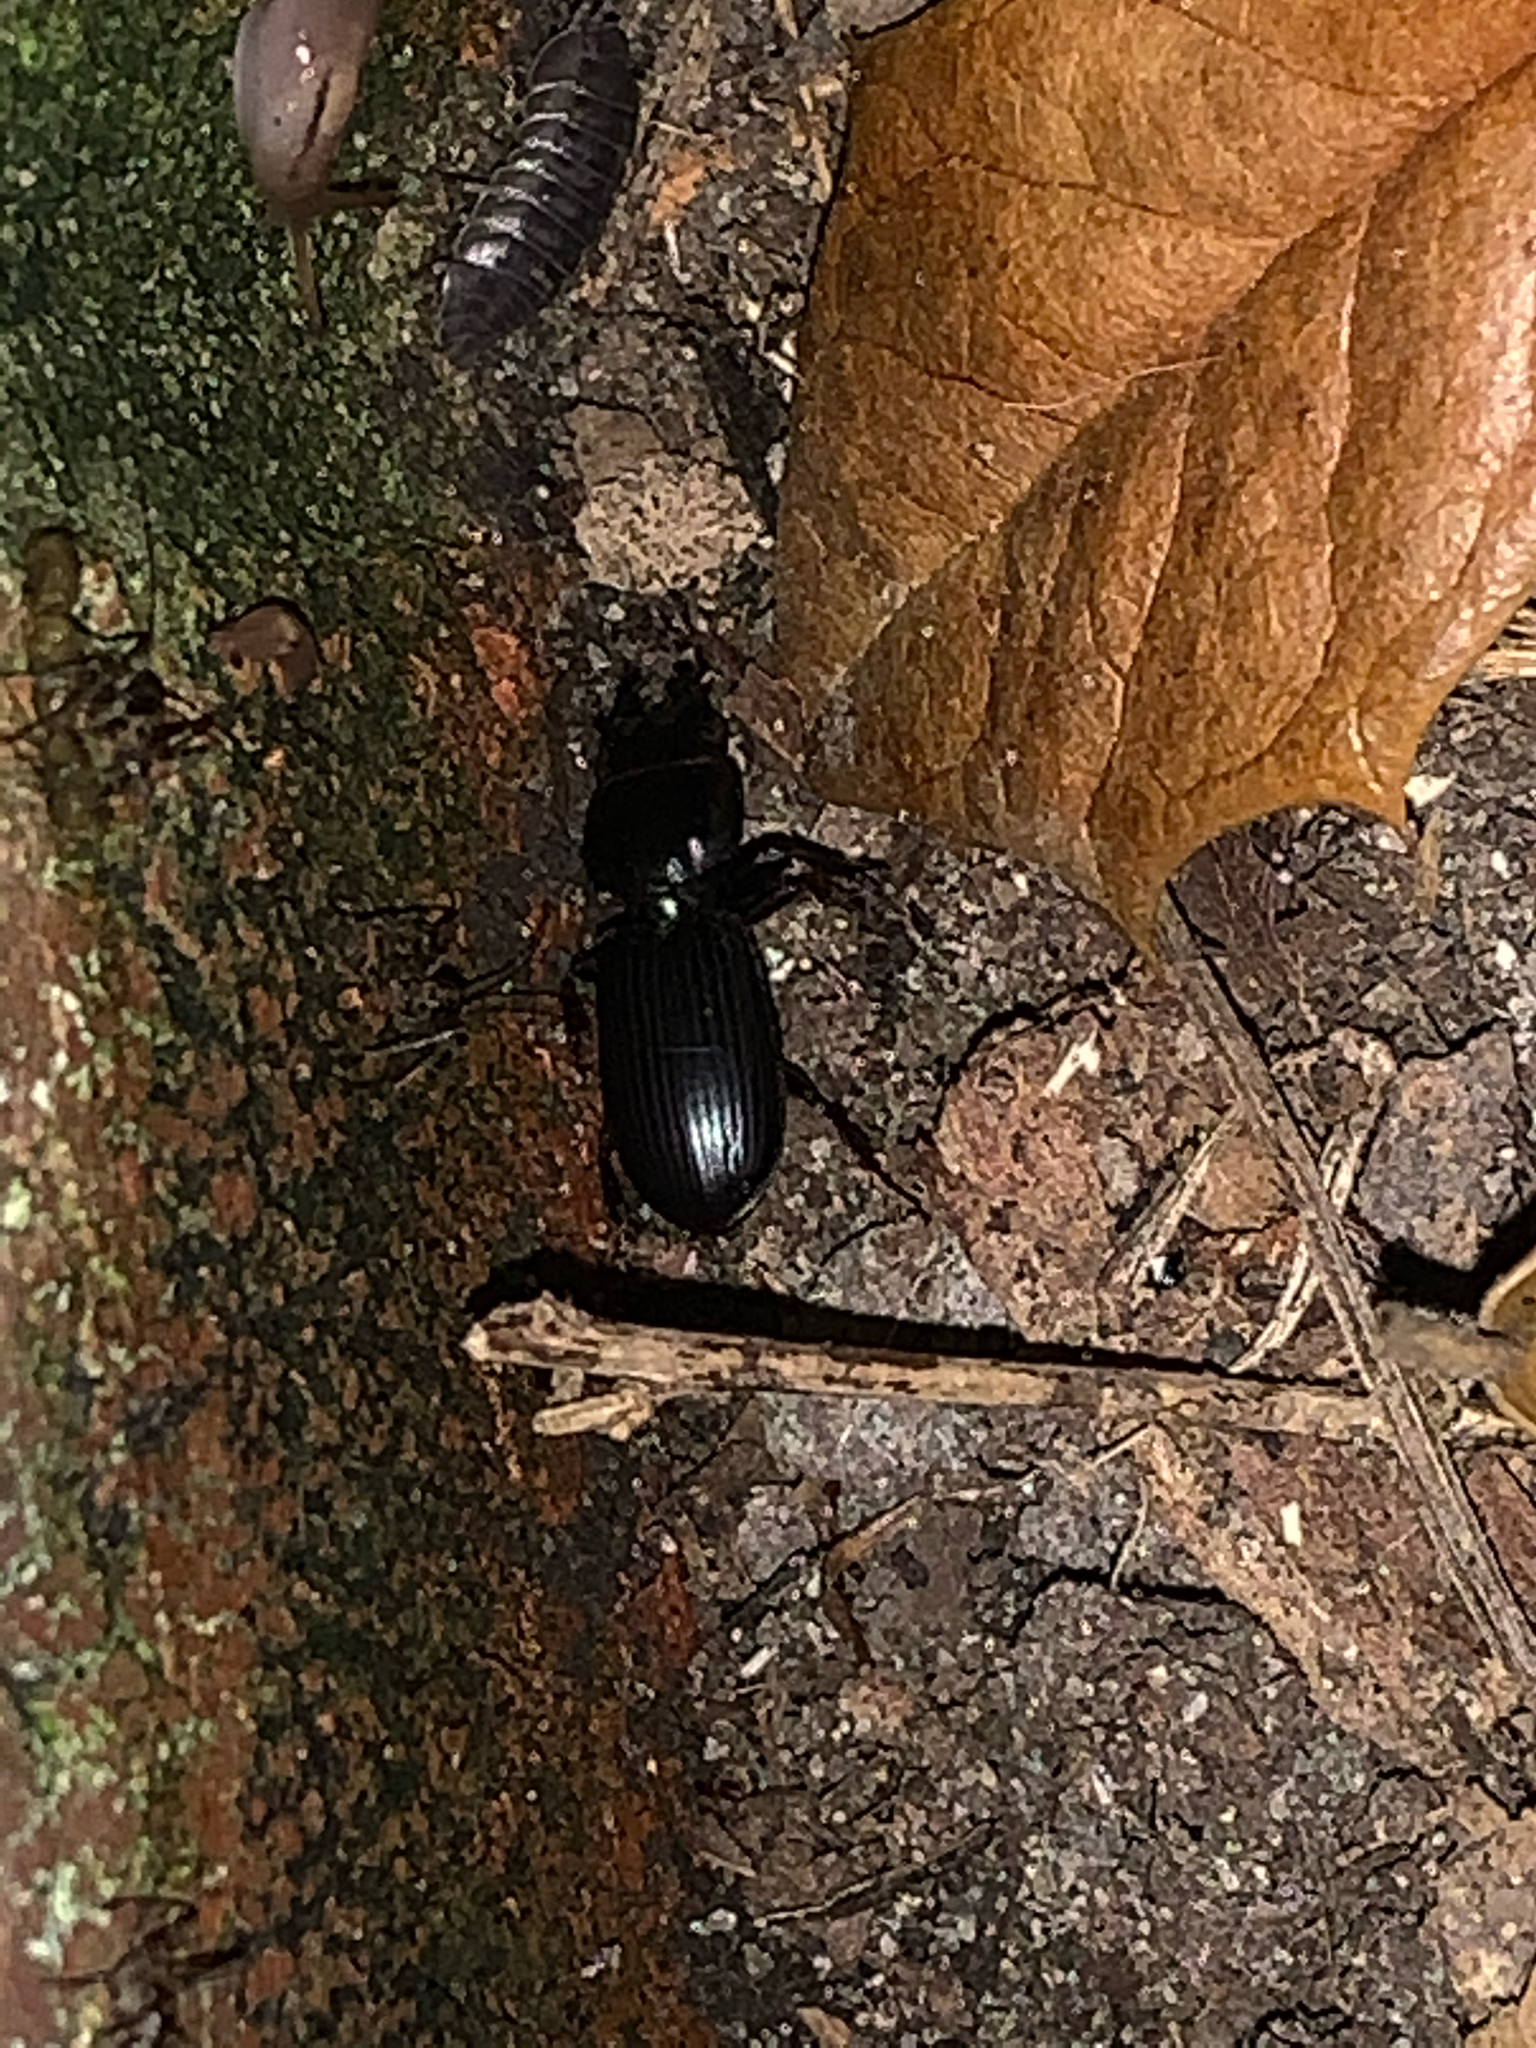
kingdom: Animalia
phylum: Arthropoda
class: Insecta
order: Coleoptera
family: Carabidae
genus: Scarites
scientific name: Scarites
